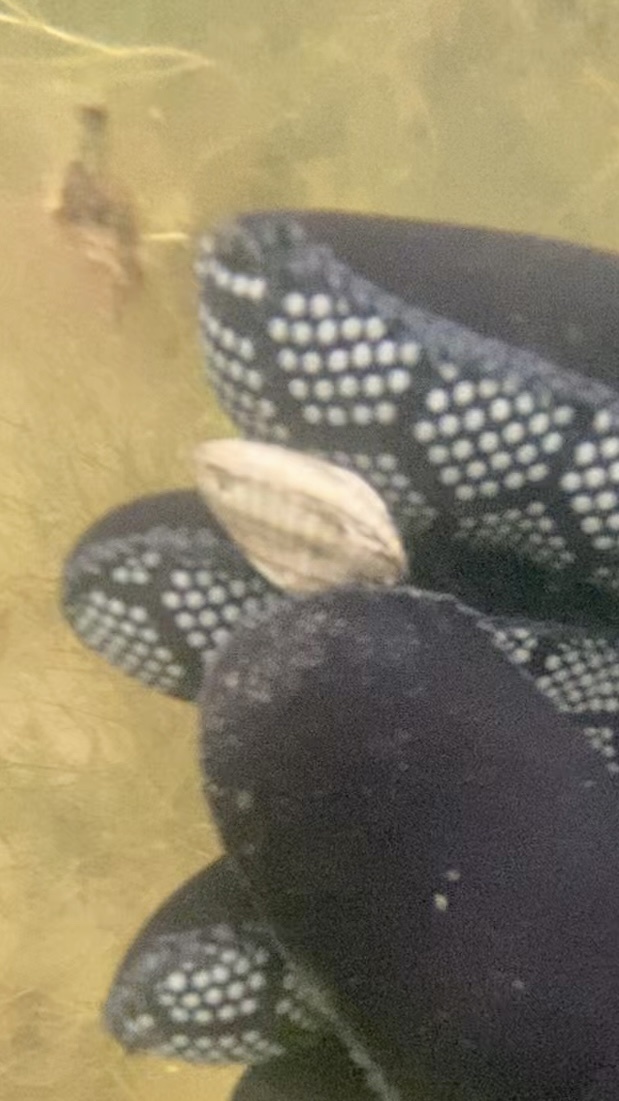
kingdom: Animalia
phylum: Mollusca
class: Bivalvia
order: Cardiida
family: Cardiidae
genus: Cerastoderma
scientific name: Cerastoderma glaucum
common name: Lagoon cockle
